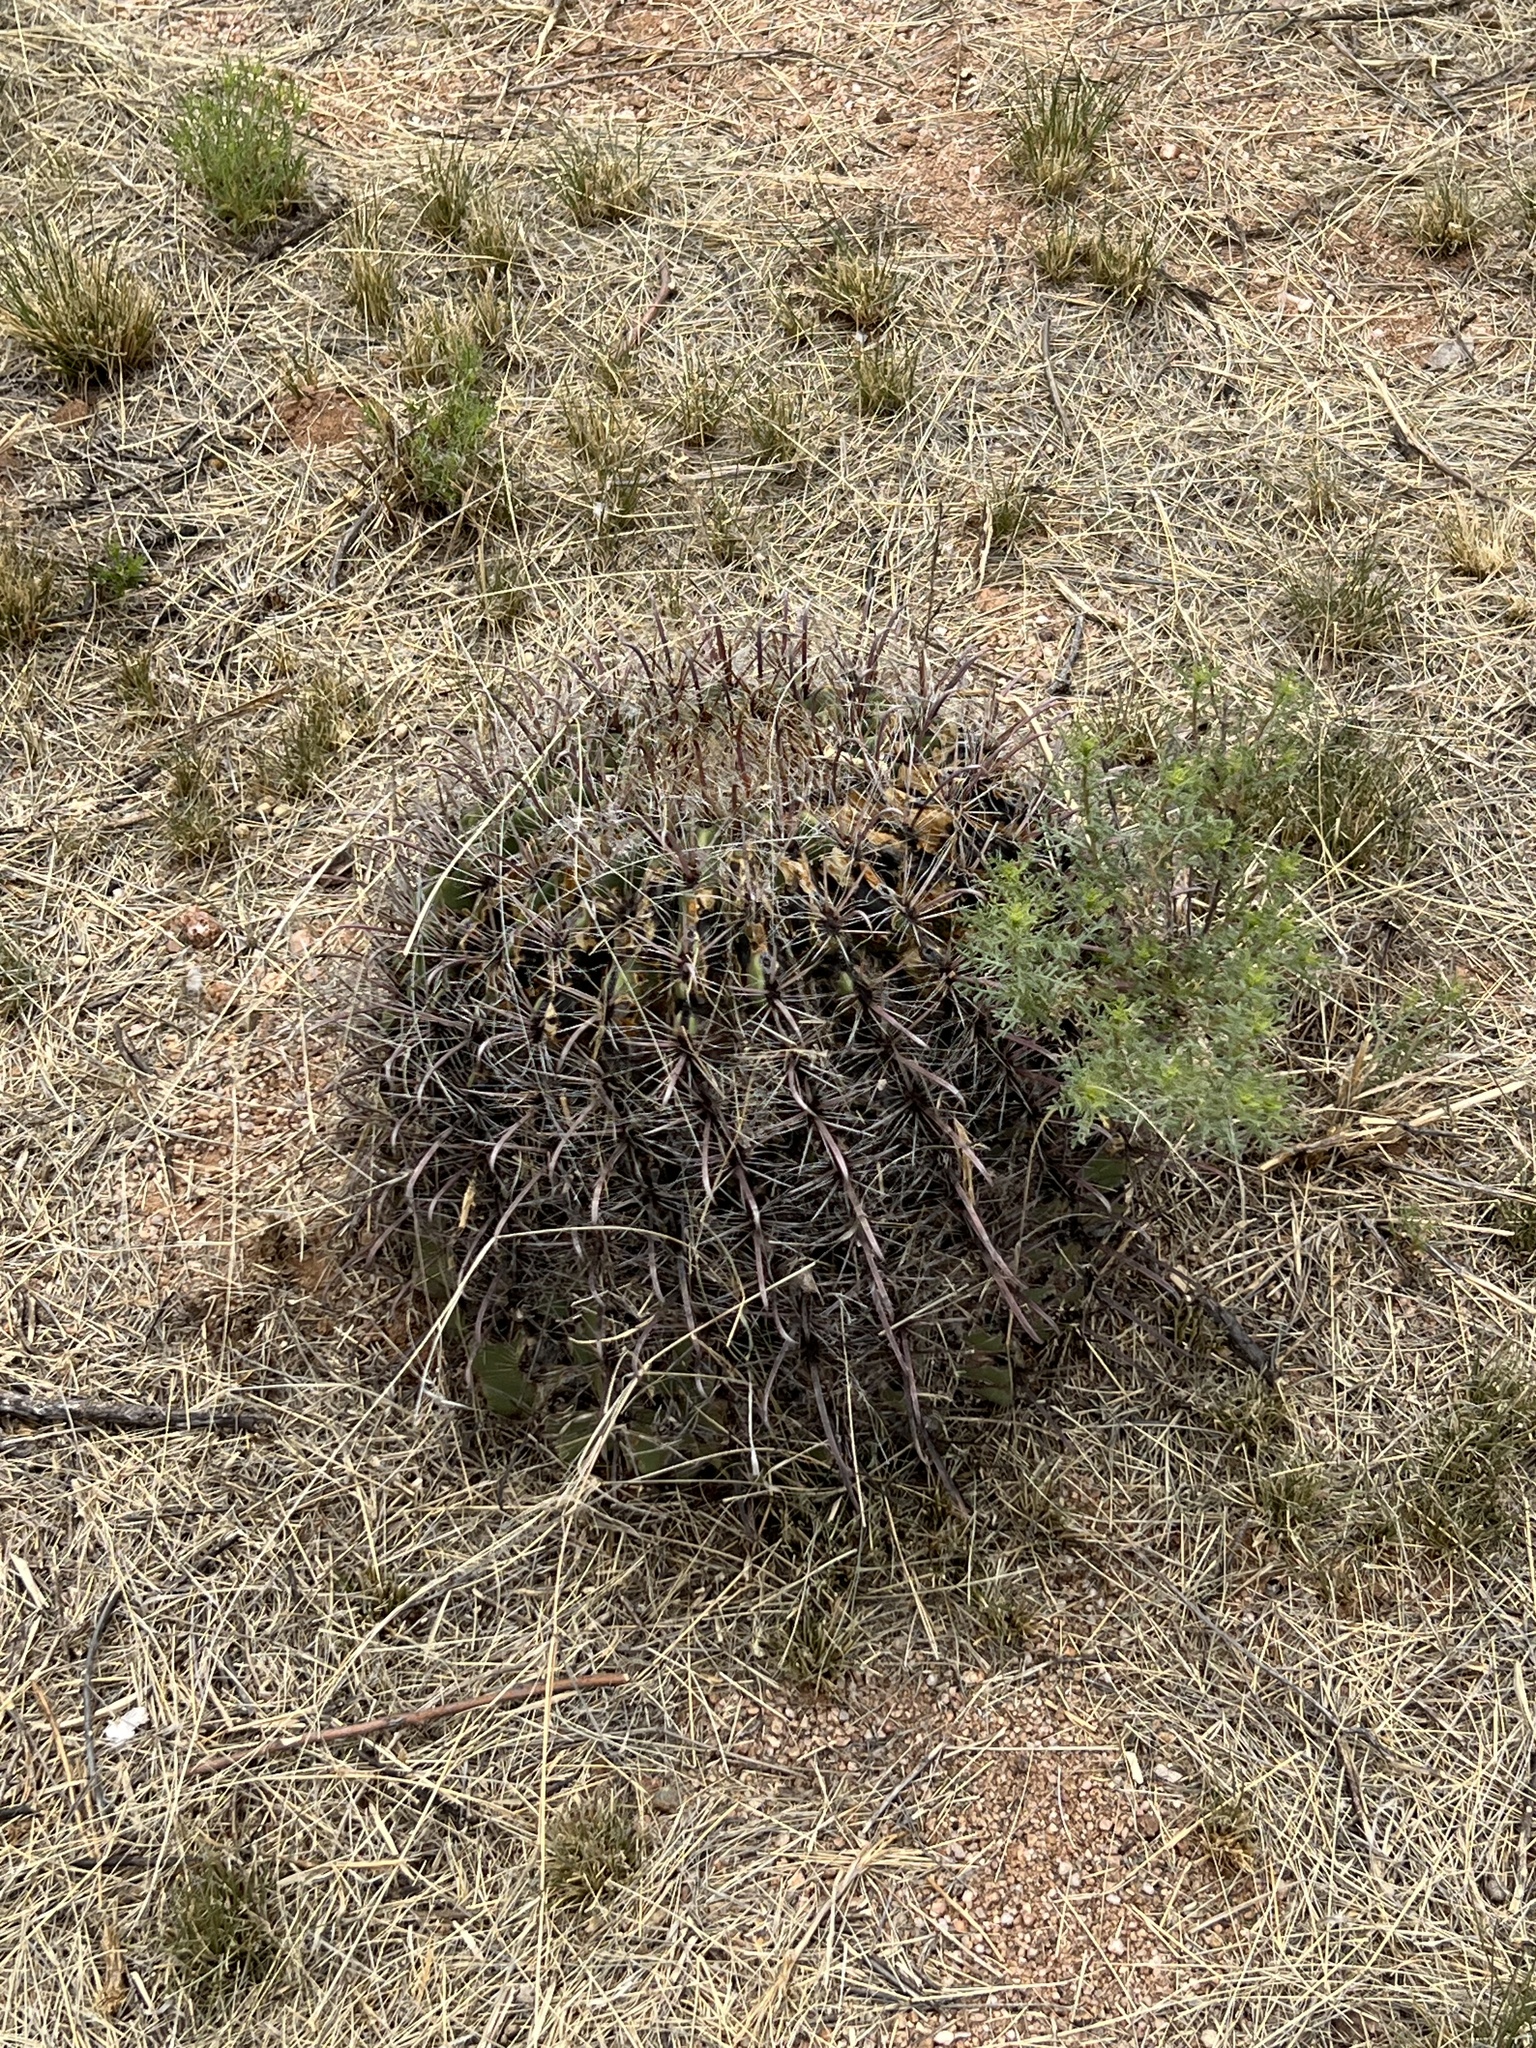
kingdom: Plantae
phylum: Tracheophyta
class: Magnoliopsida
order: Caryophyllales
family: Cactaceae
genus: Ferocactus
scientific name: Ferocactus wislizeni
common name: Candy barrel cactus
